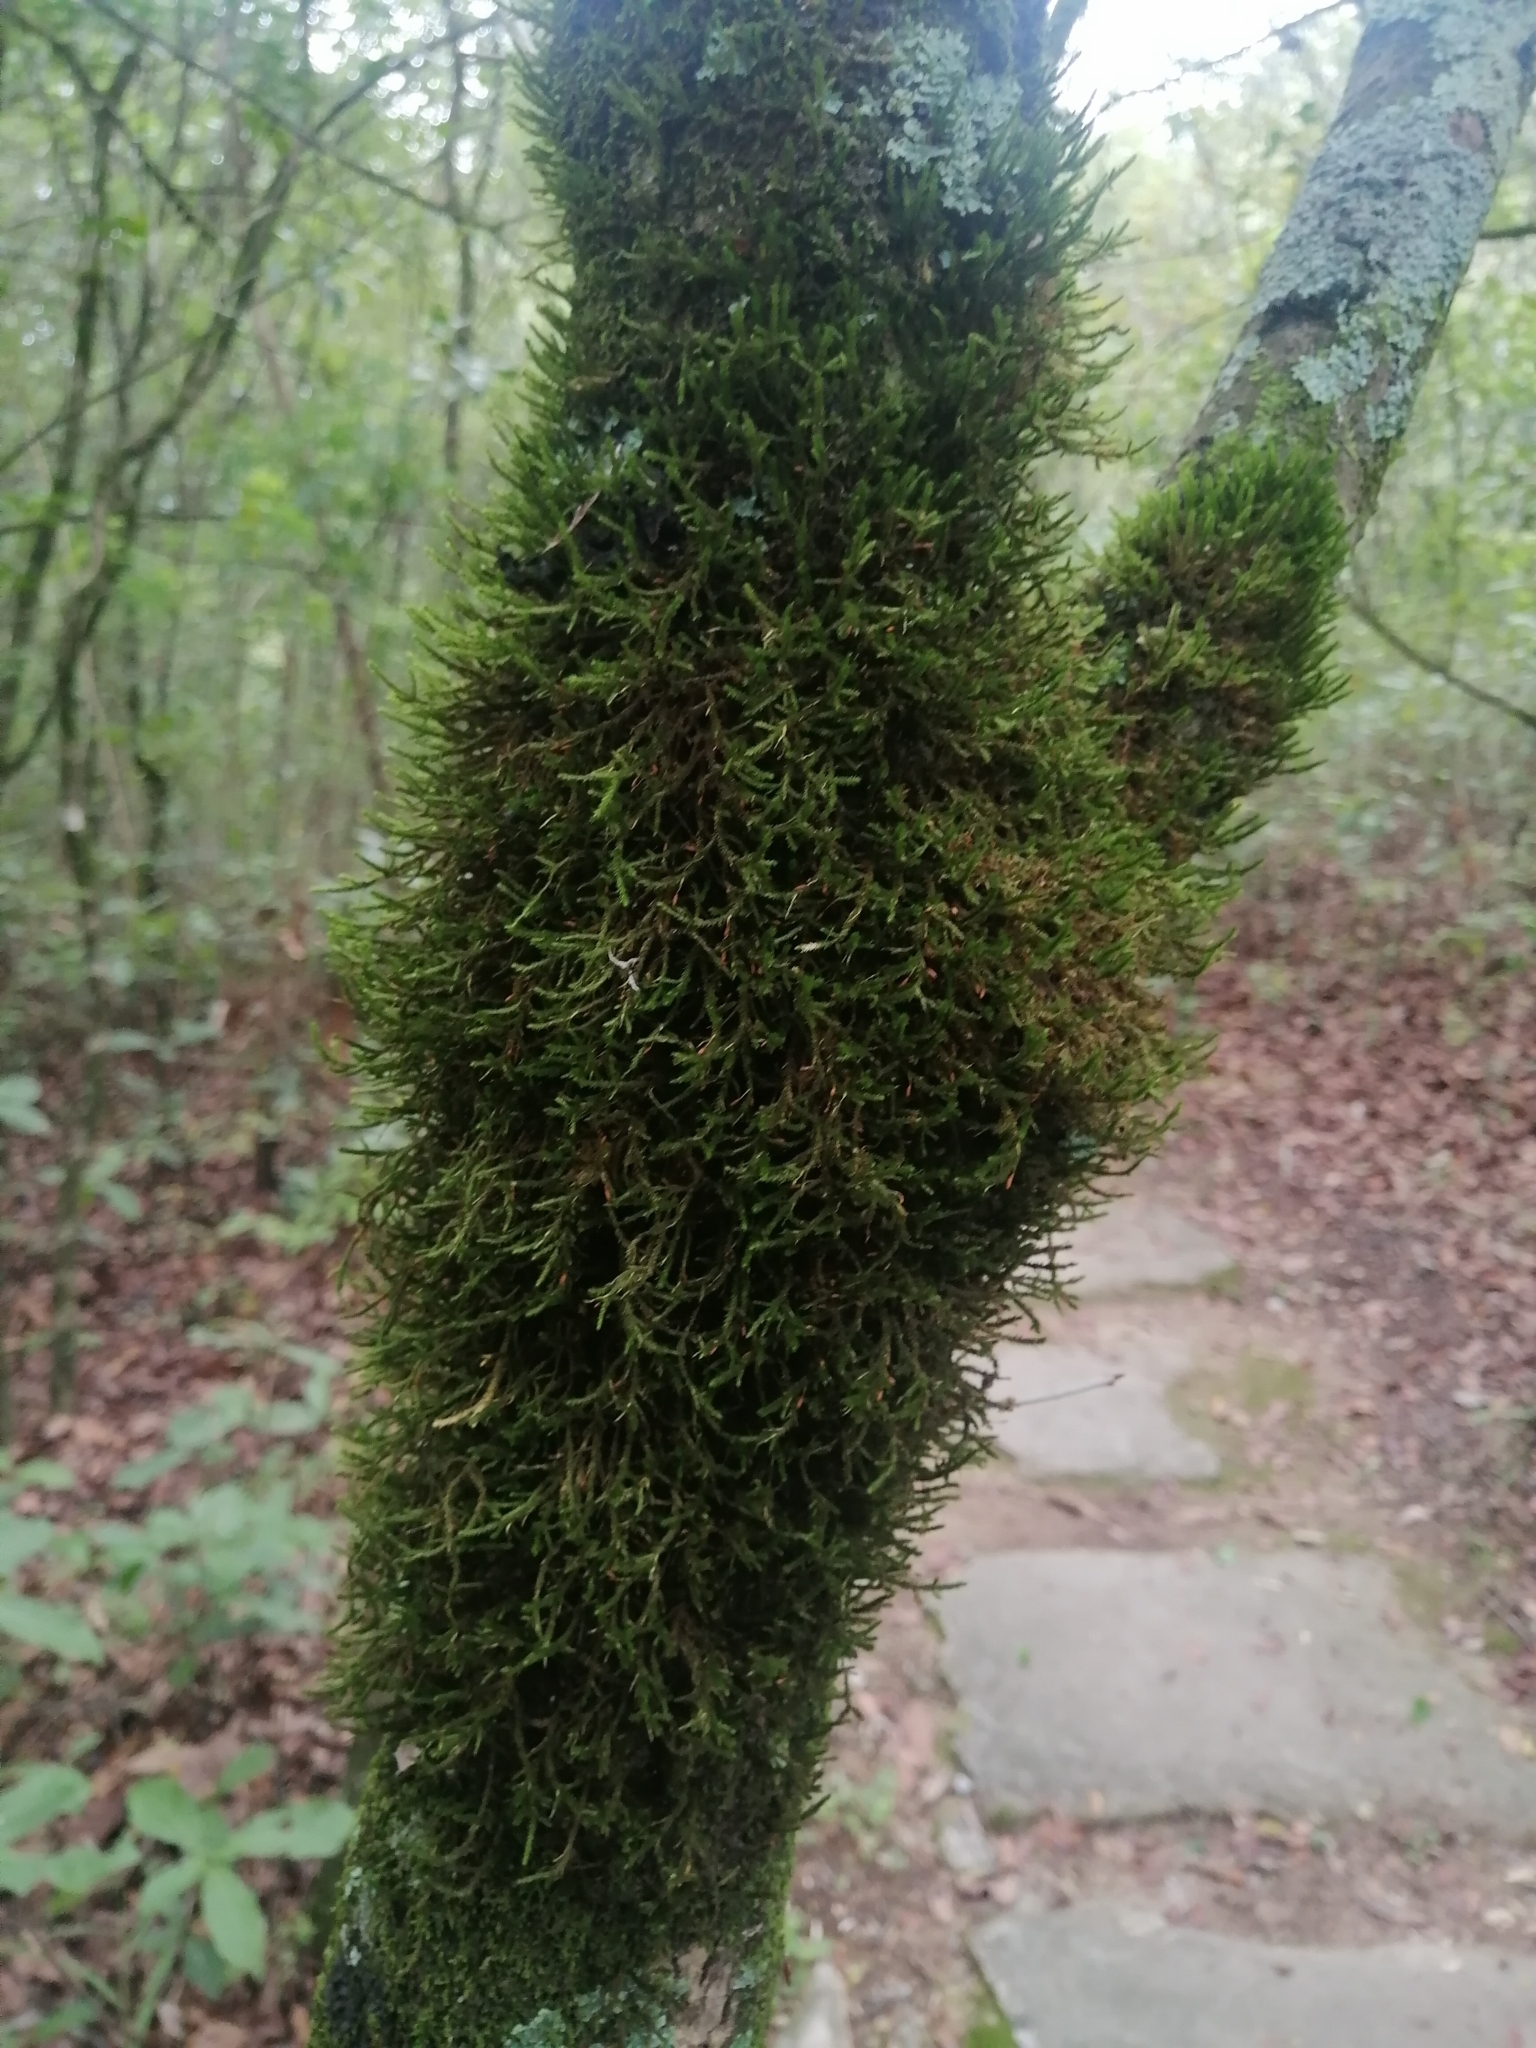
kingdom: Plantae
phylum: Bryophyta
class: Bryopsida
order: Hypnales
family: Neckeraceae
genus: Forsstroemia
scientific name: Forsstroemia producta
